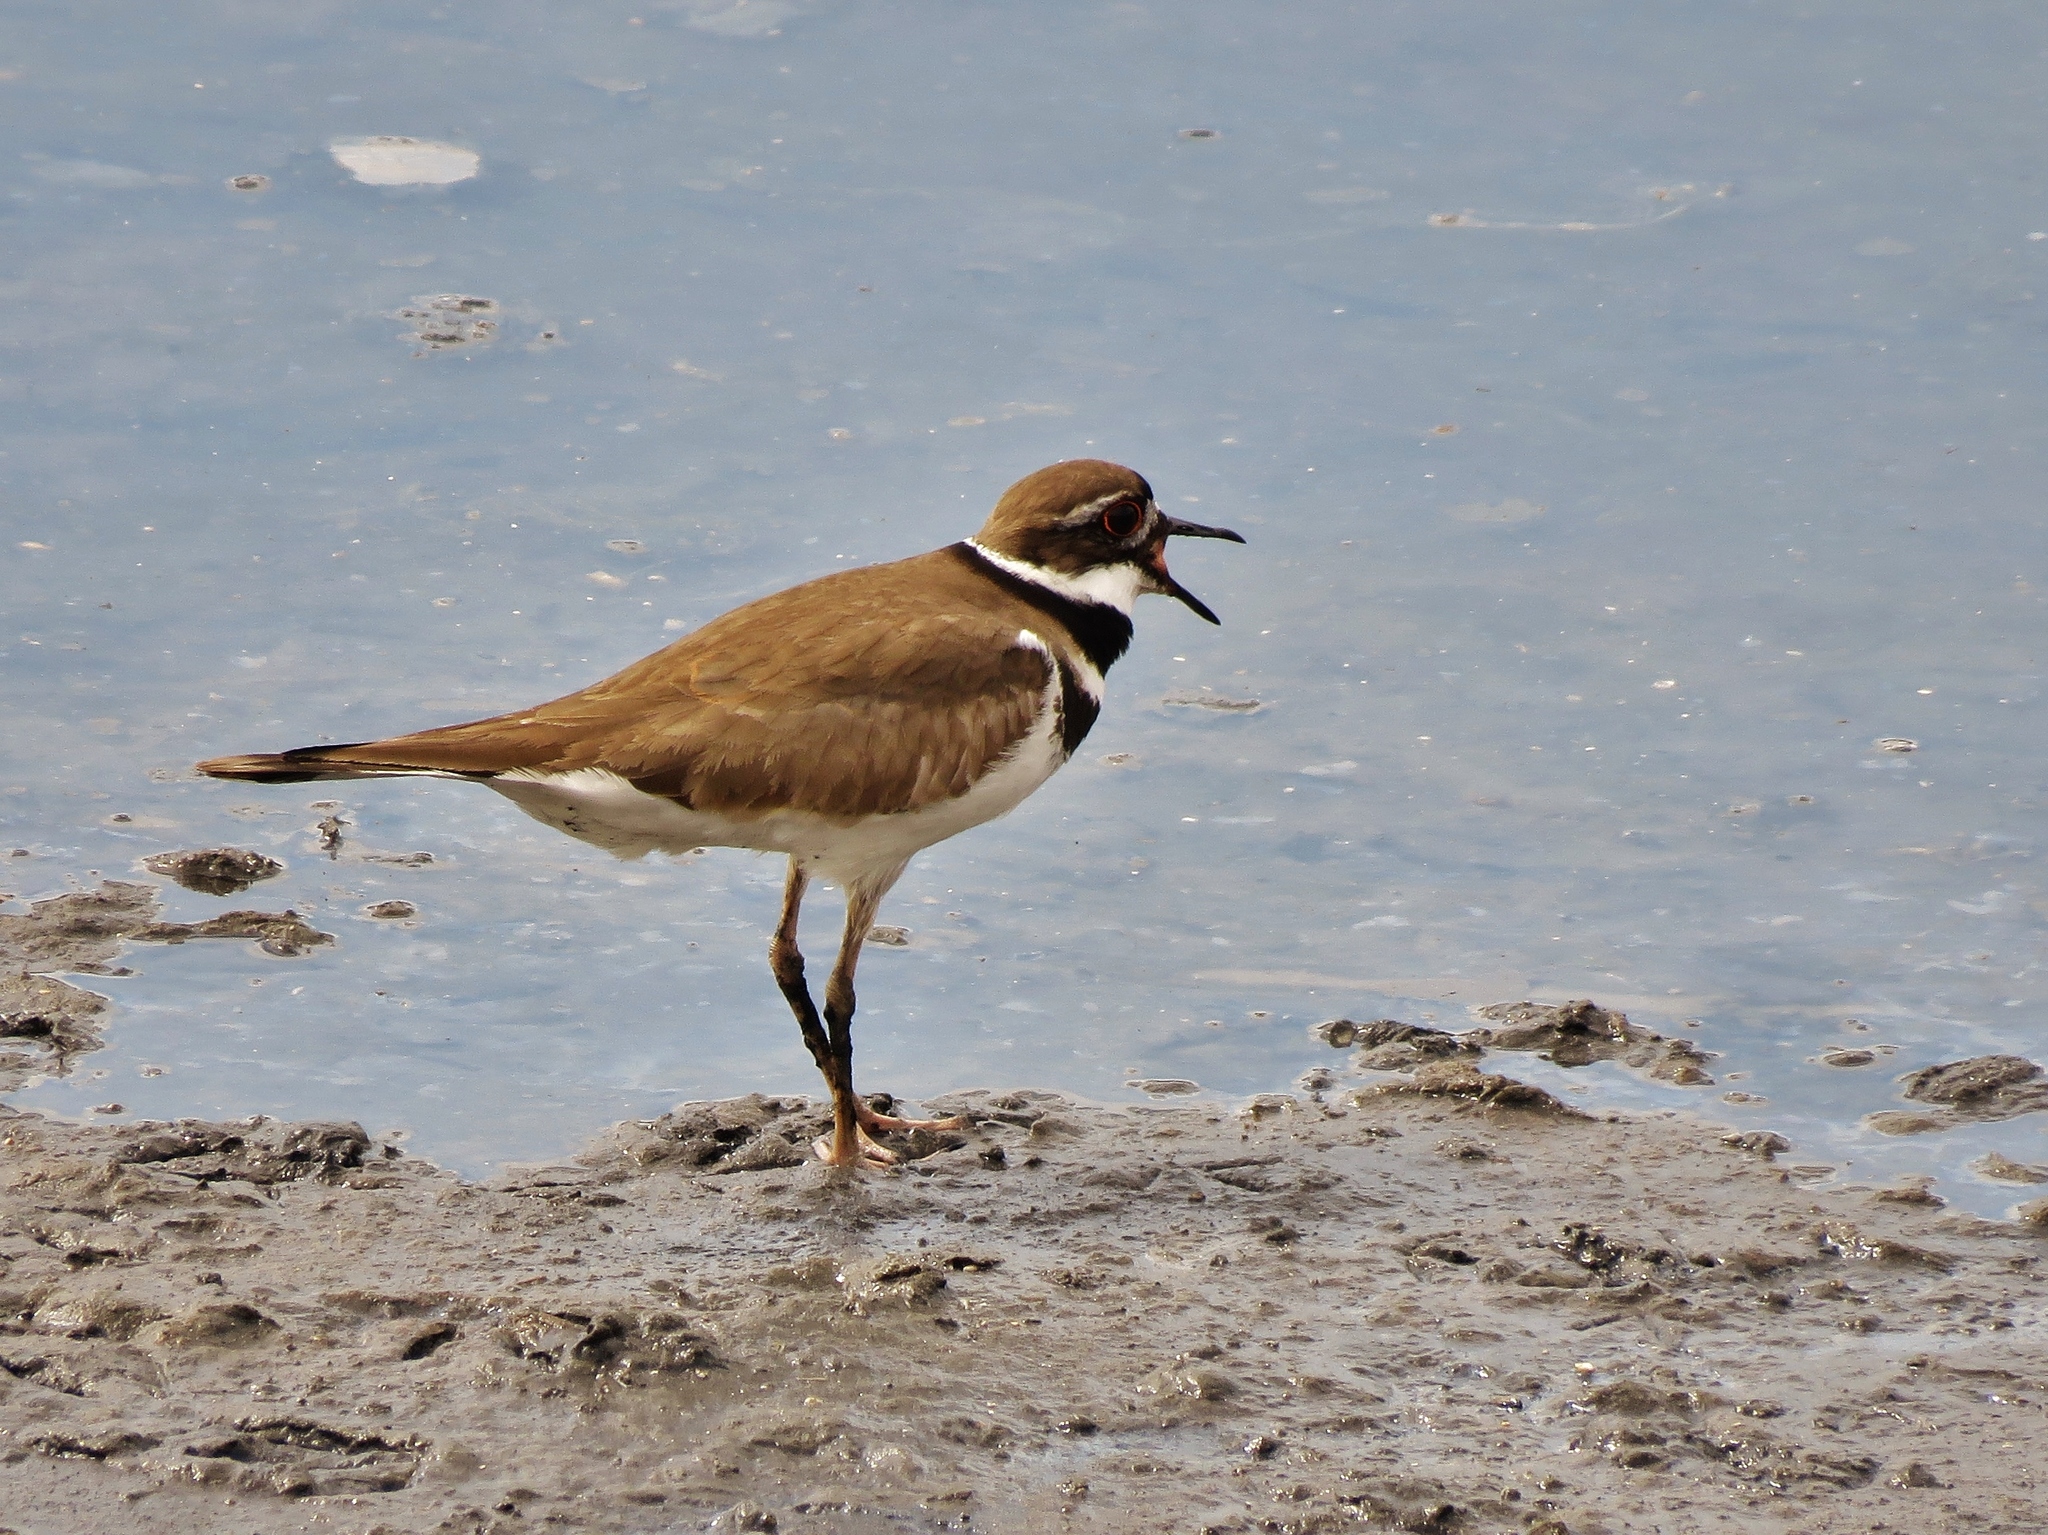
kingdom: Animalia
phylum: Chordata
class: Aves
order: Charadriiformes
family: Charadriidae
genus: Charadrius
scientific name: Charadrius vociferus
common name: Killdeer
